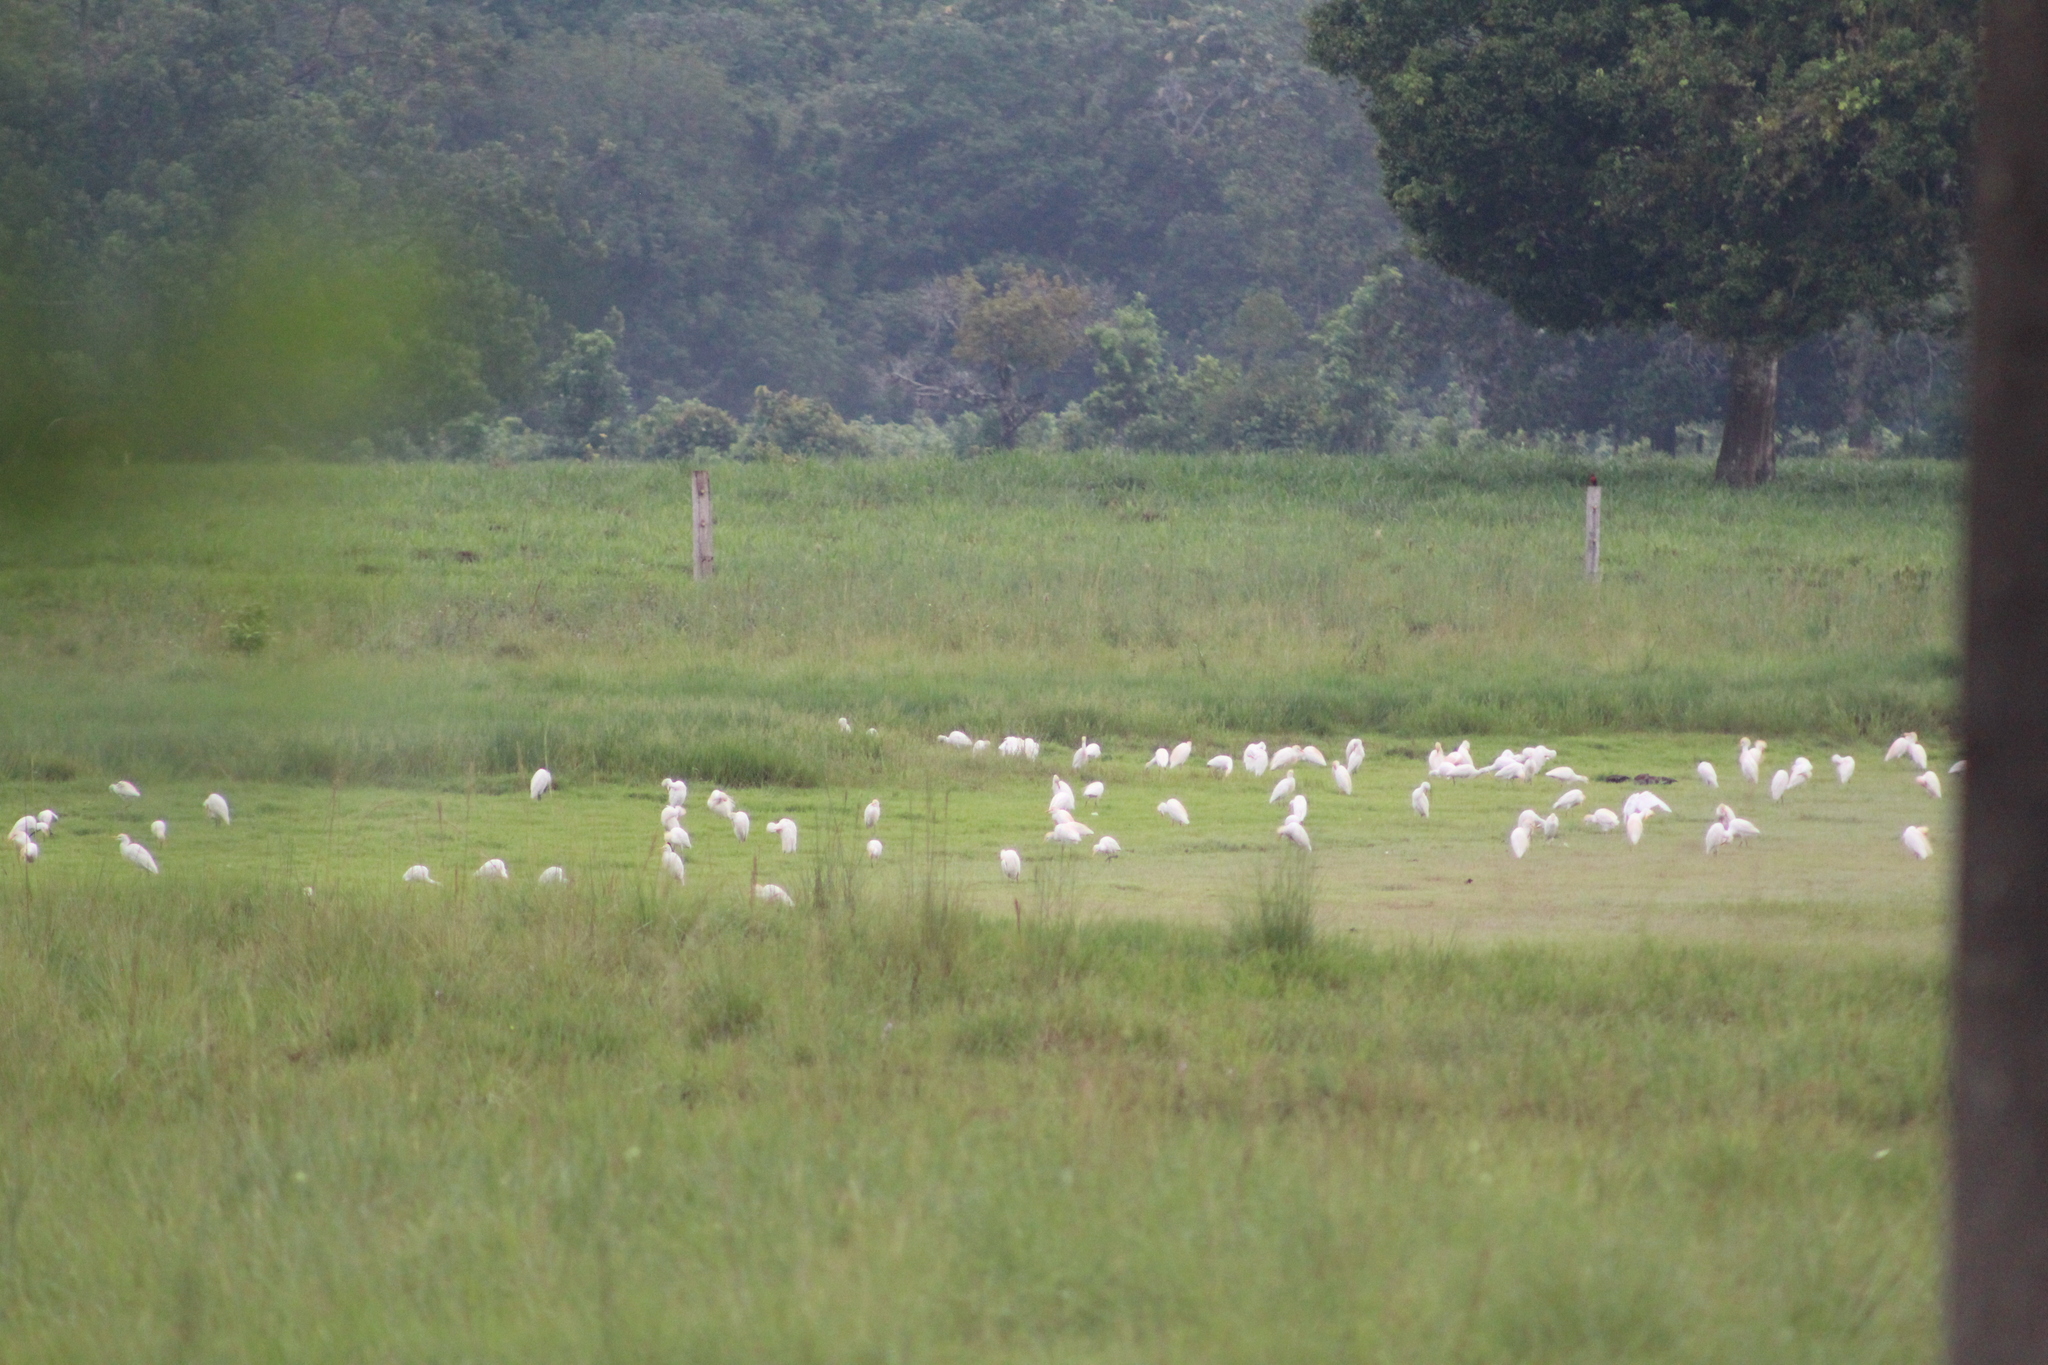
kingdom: Animalia
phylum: Chordata
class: Aves
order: Pelecaniformes
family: Ardeidae
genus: Bubulcus
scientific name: Bubulcus ibis
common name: Cattle egret
